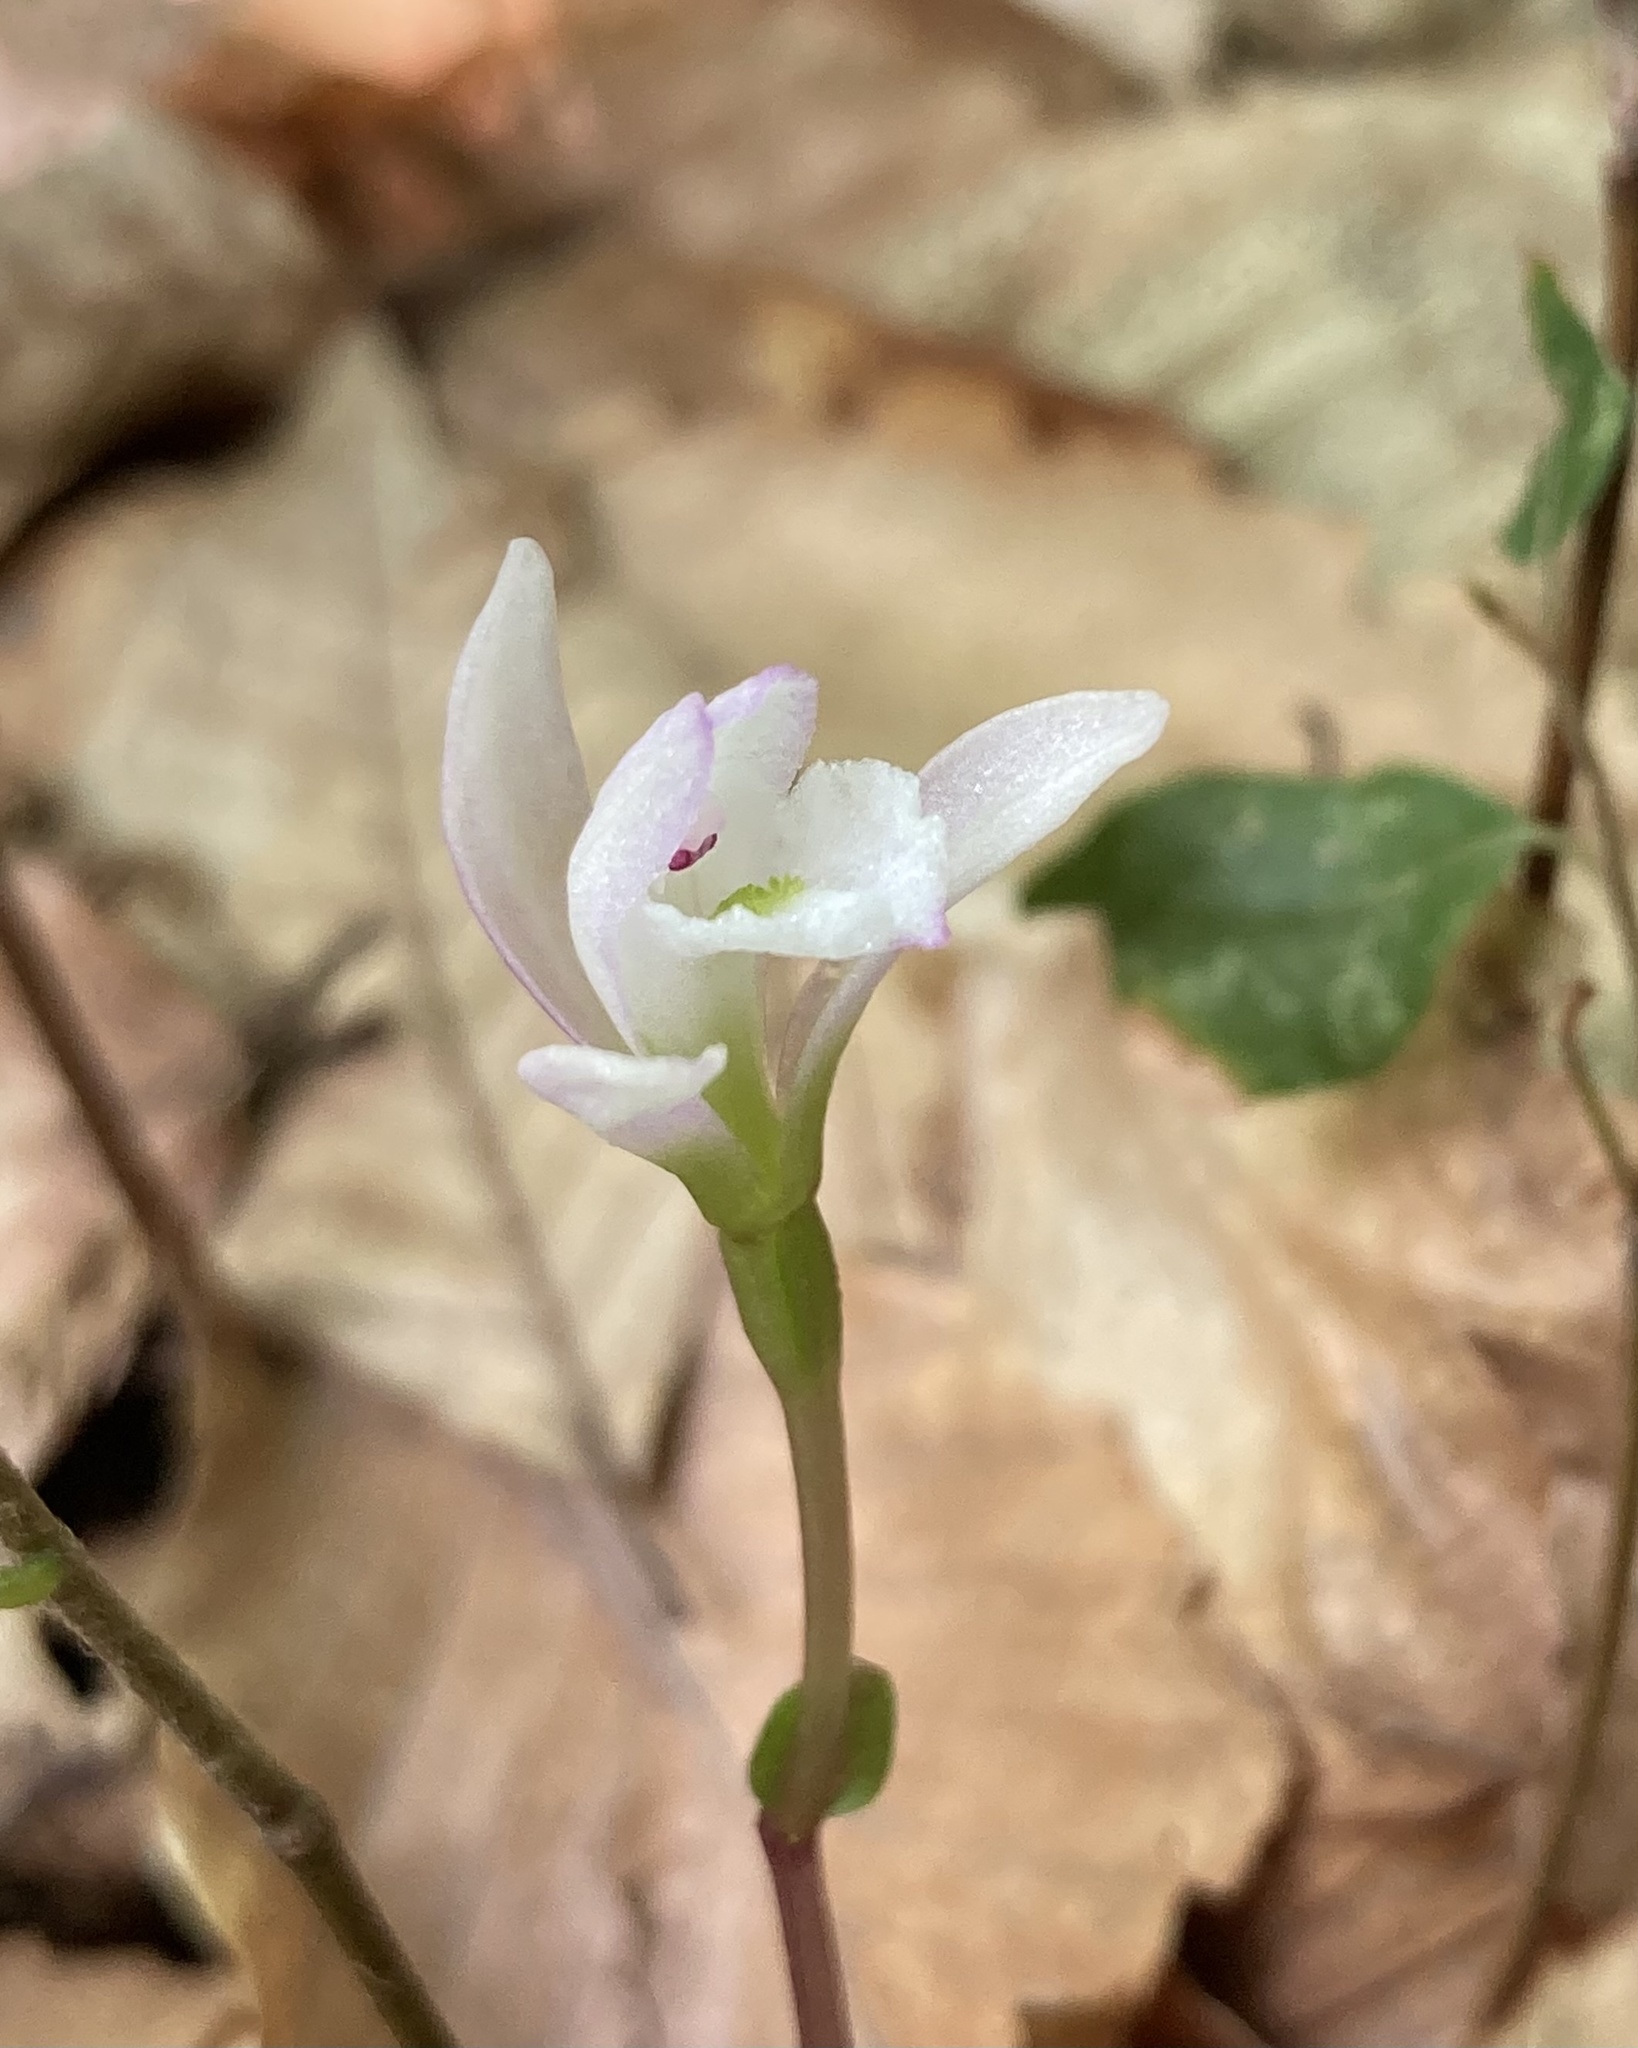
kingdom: Plantae
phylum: Tracheophyta
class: Liliopsida
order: Asparagales
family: Orchidaceae
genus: Triphora
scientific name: Triphora trianthophoros
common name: Three birds orchid
